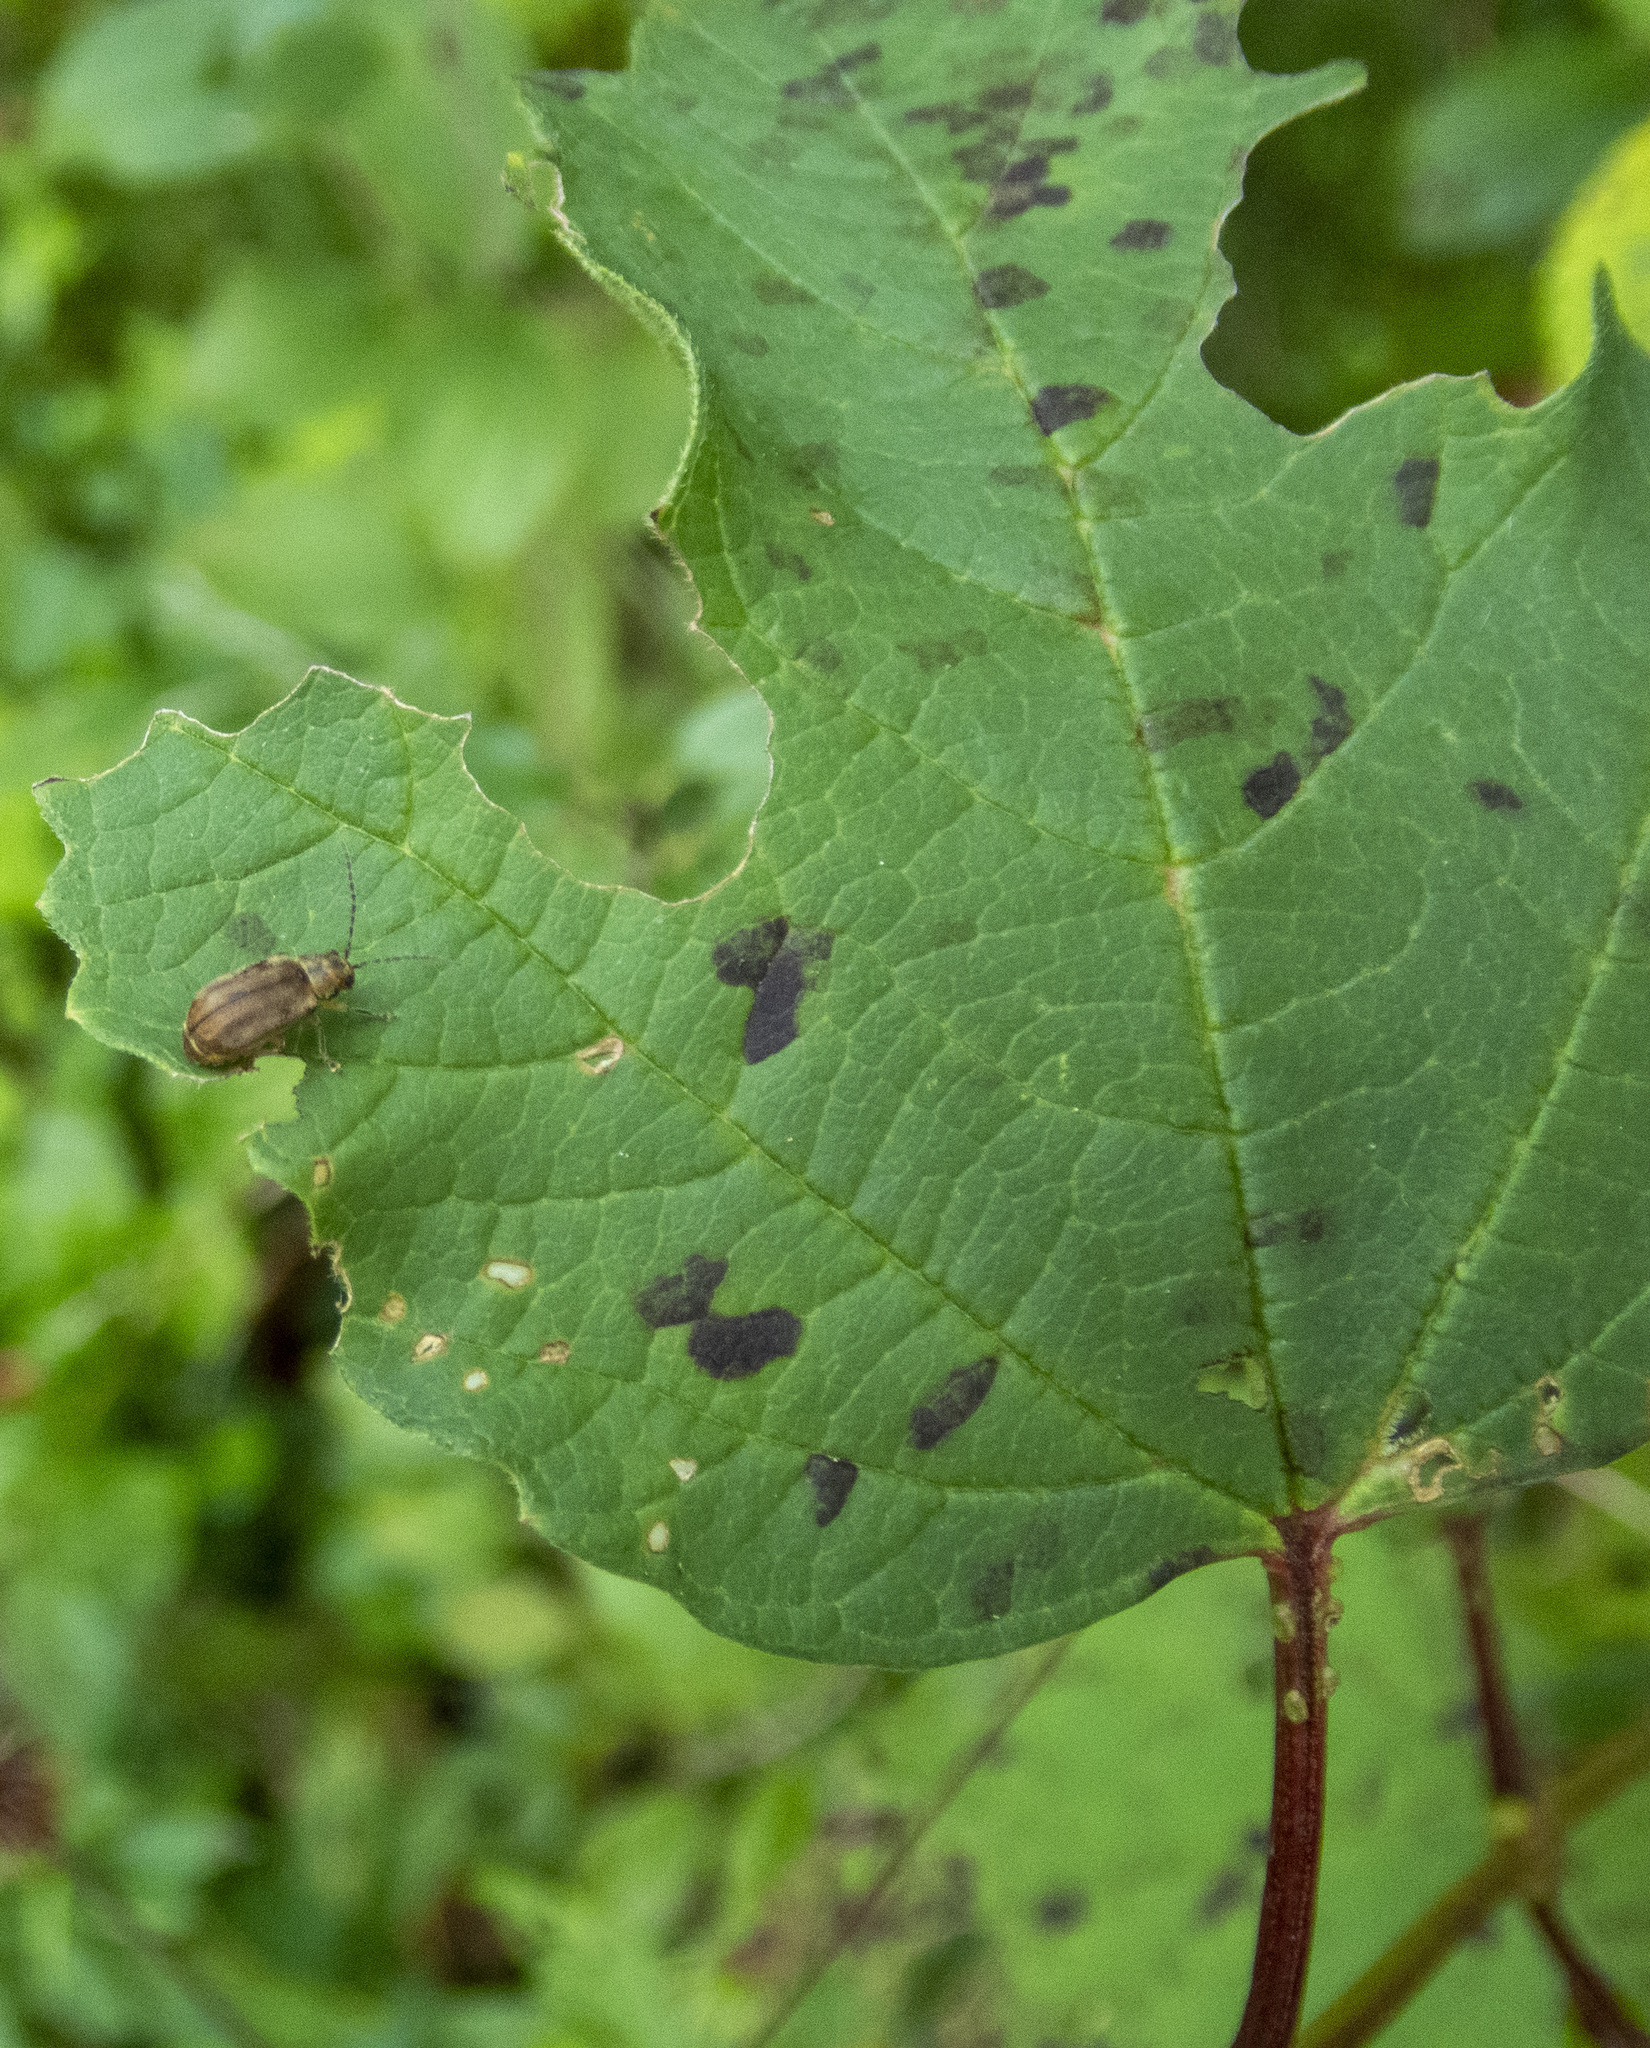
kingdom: Animalia
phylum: Arthropoda
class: Insecta
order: Coleoptera
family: Chrysomelidae
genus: Pyrrhalta
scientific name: Pyrrhalta viburni
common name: Guelder-rose leaf beetle
